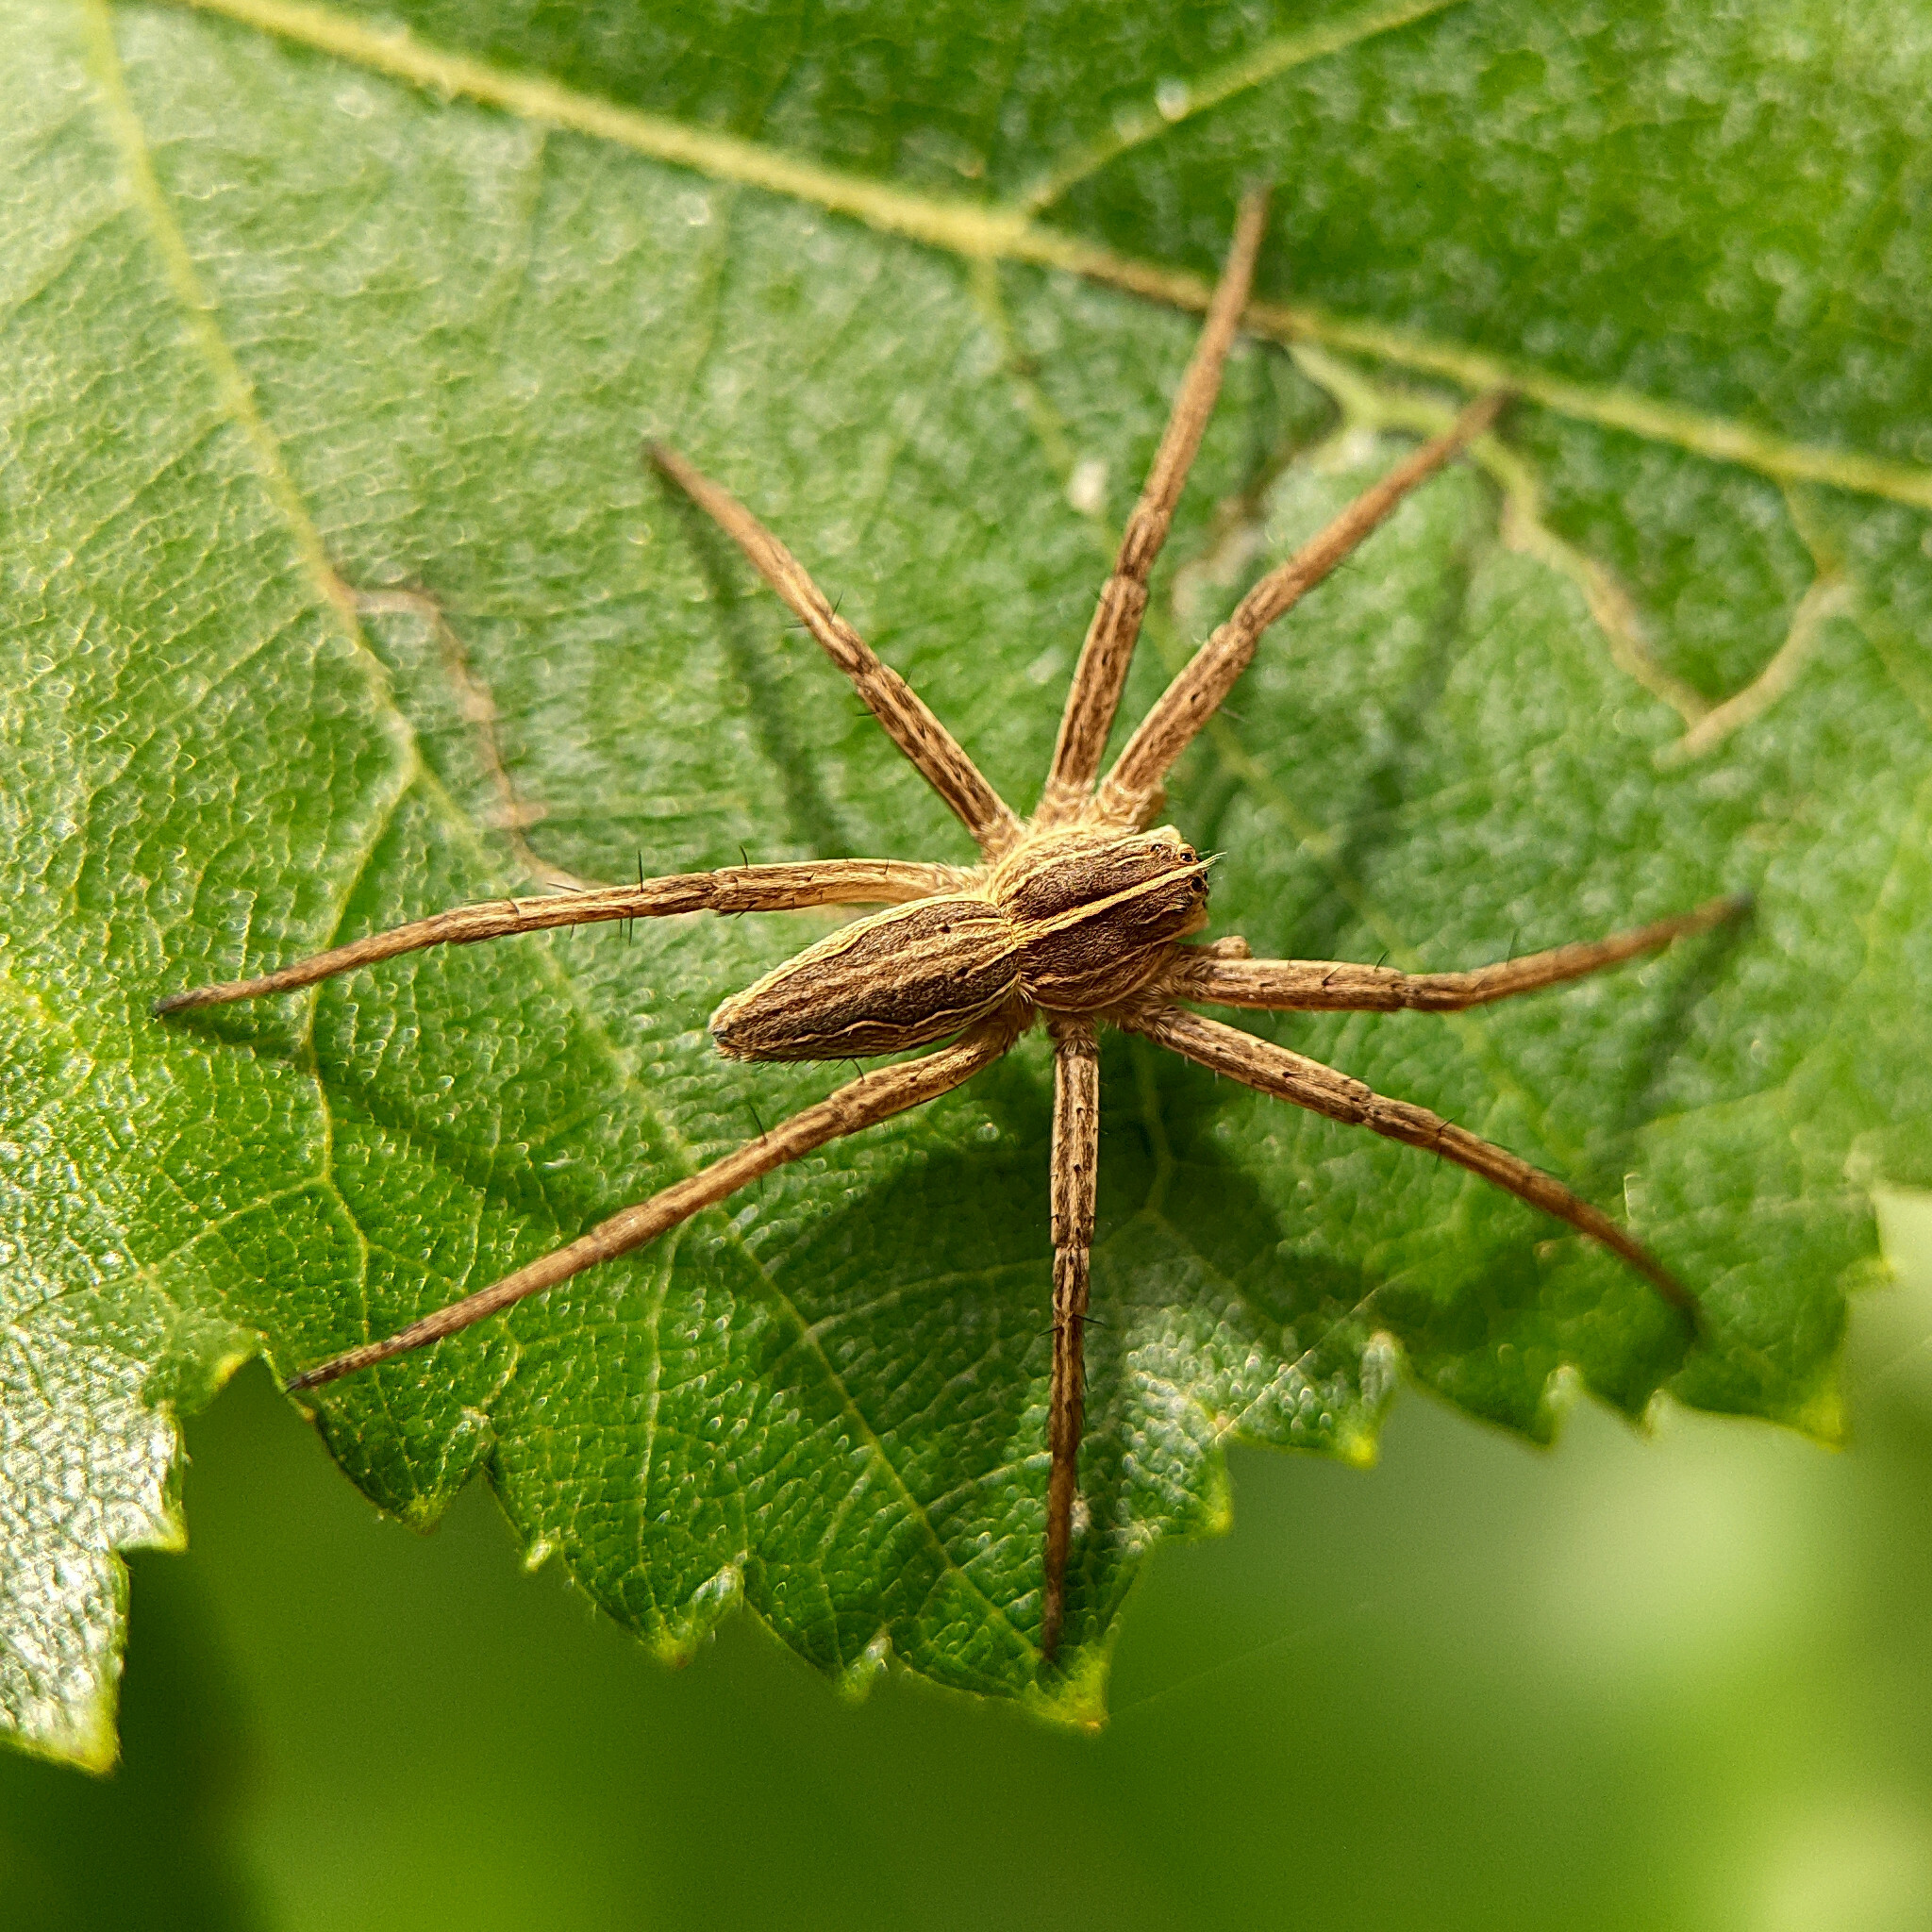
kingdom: Animalia
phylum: Arthropoda
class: Arachnida
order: Araneae
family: Pisauridae
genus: Pisaura
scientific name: Pisaura mirabilis
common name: Tent spider
